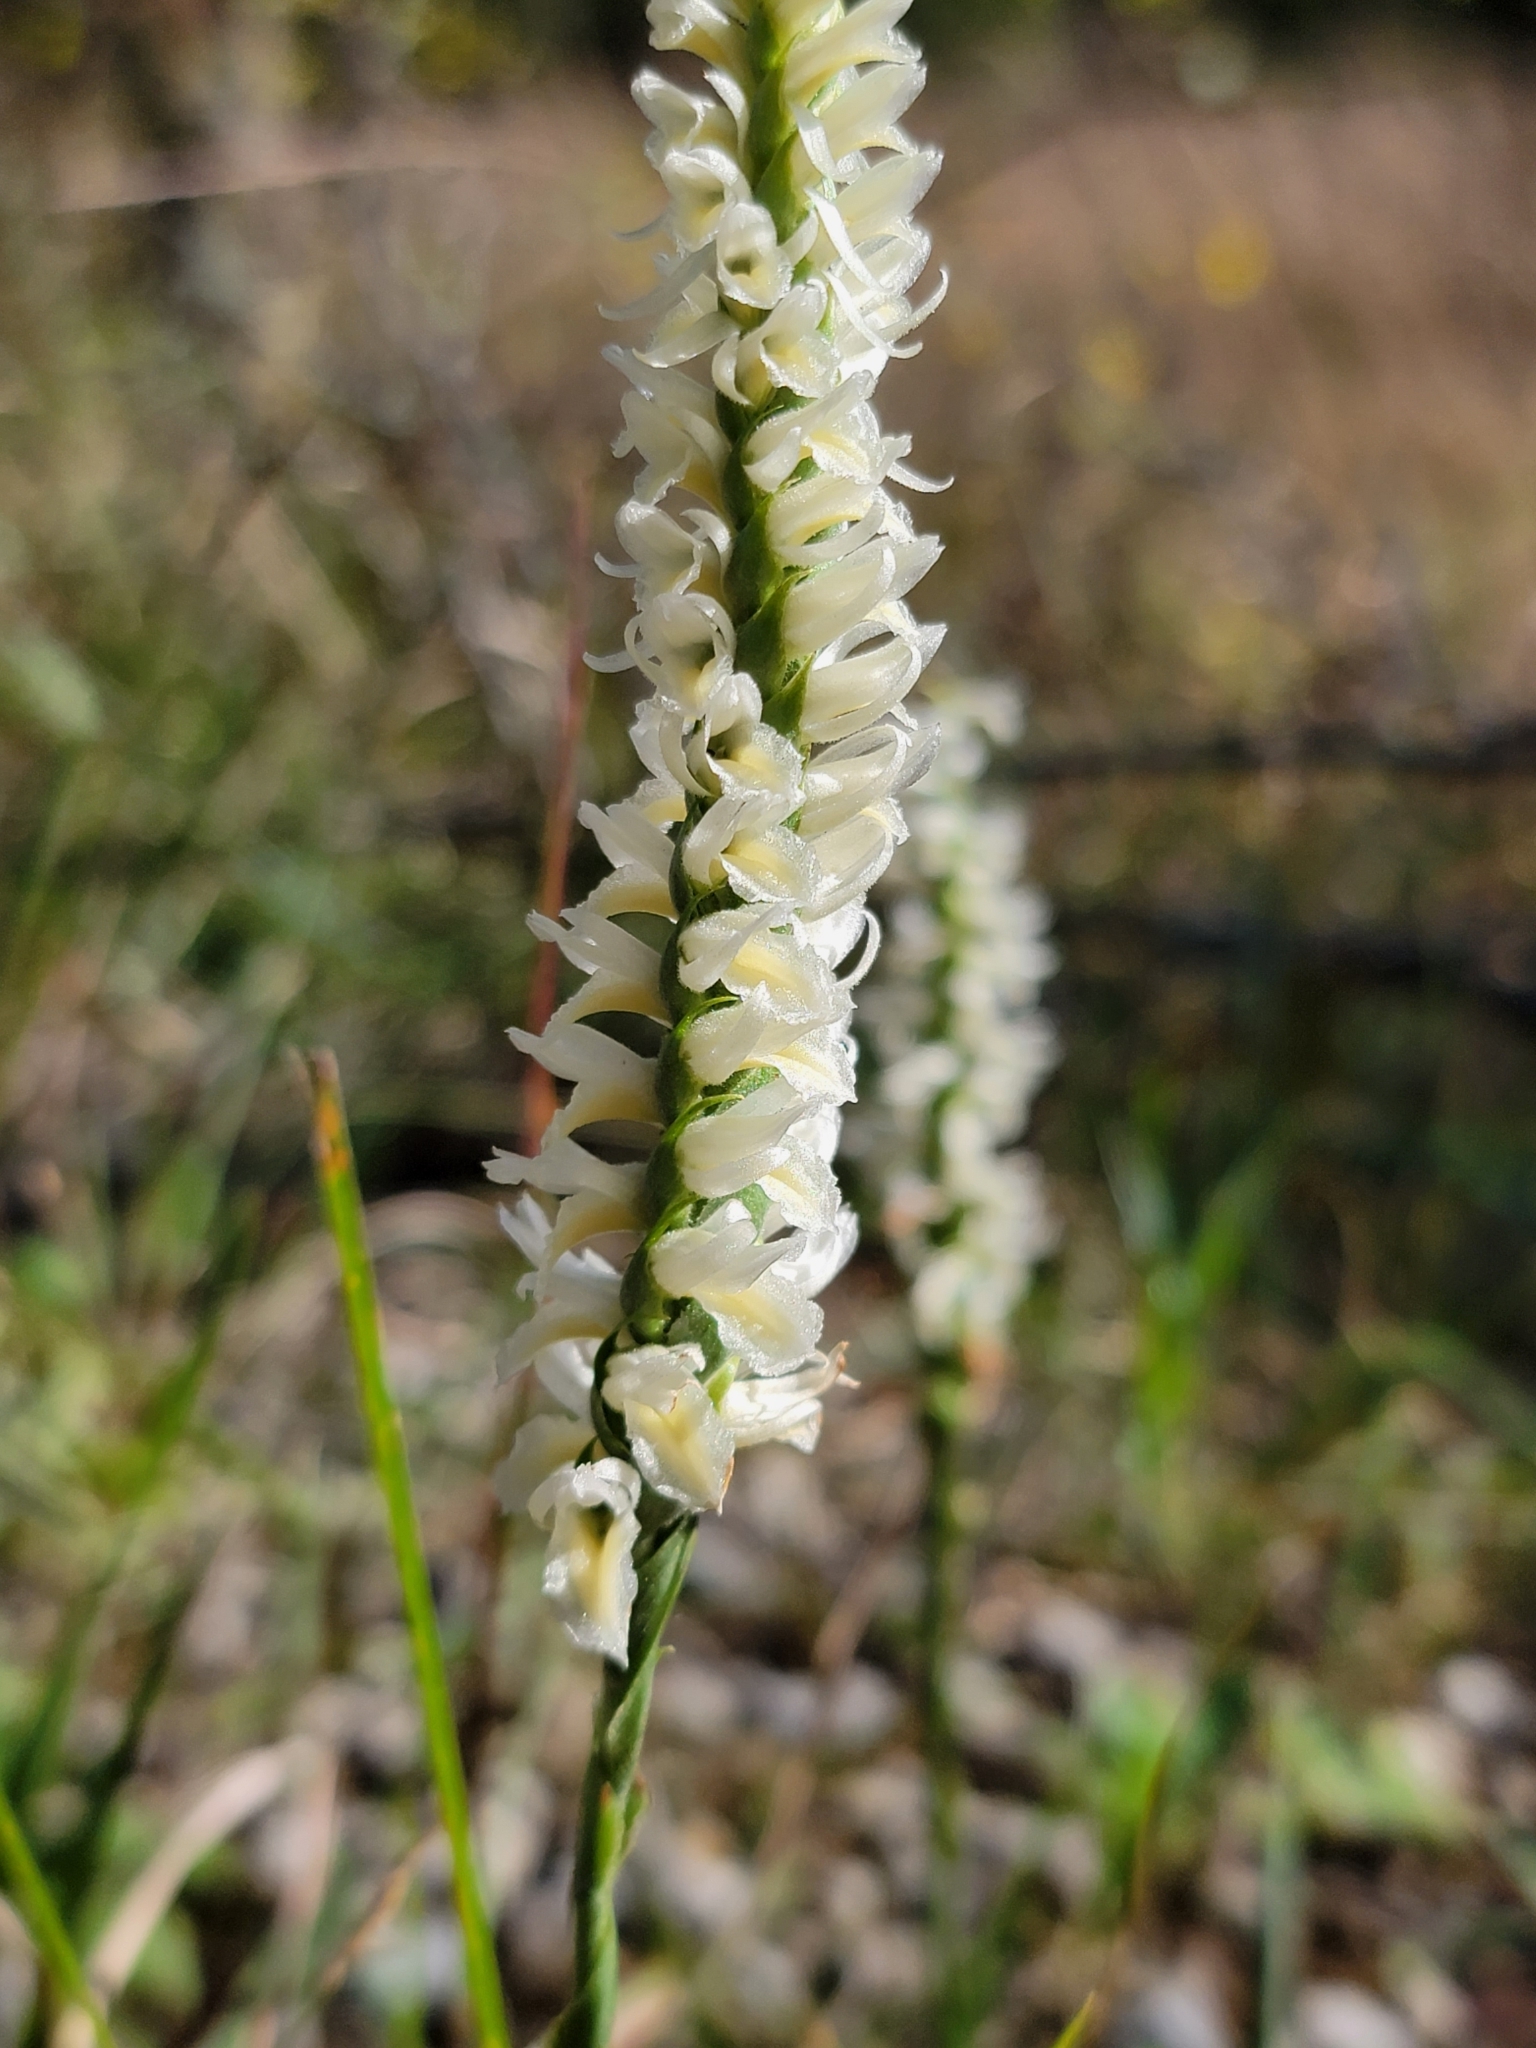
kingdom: Plantae
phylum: Tracheophyta
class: Liliopsida
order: Asparagales
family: Orchidaceae
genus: Spiranthes
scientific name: Spiranthes magnicamporum
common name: Great plains ladies'-tresses
